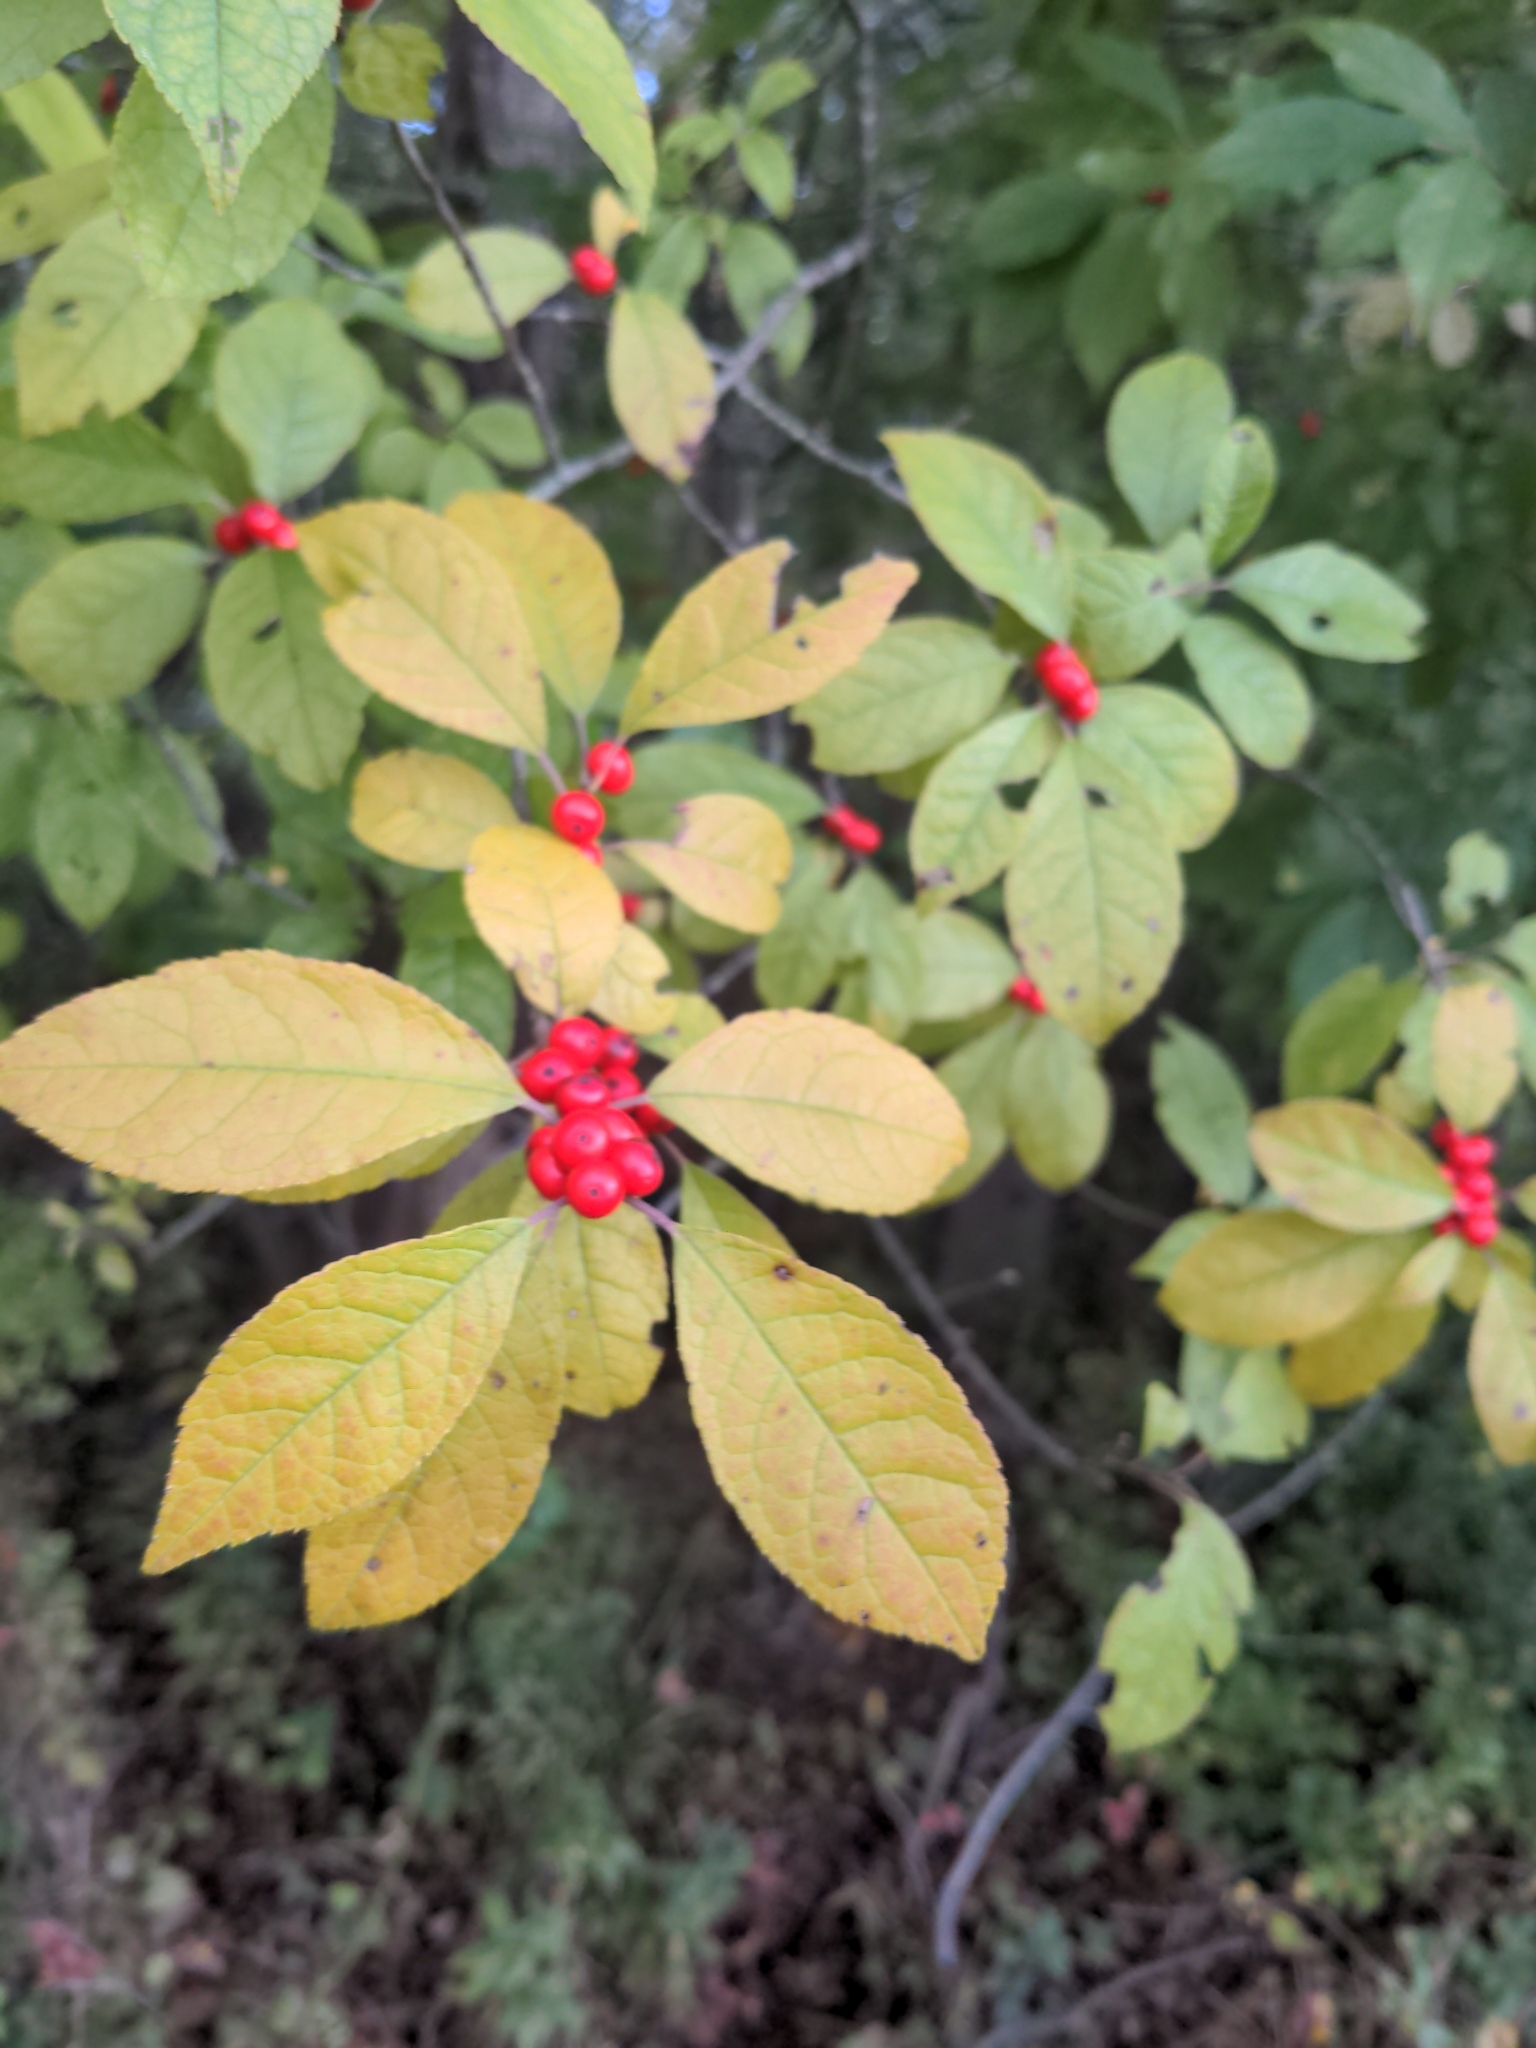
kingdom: Plantae
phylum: Tracheophyta
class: Magnoliopsida
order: Aquifoliales
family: Aquifoliaceae
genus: Ilex
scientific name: Ilex verticillata
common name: Virginia winterberry
